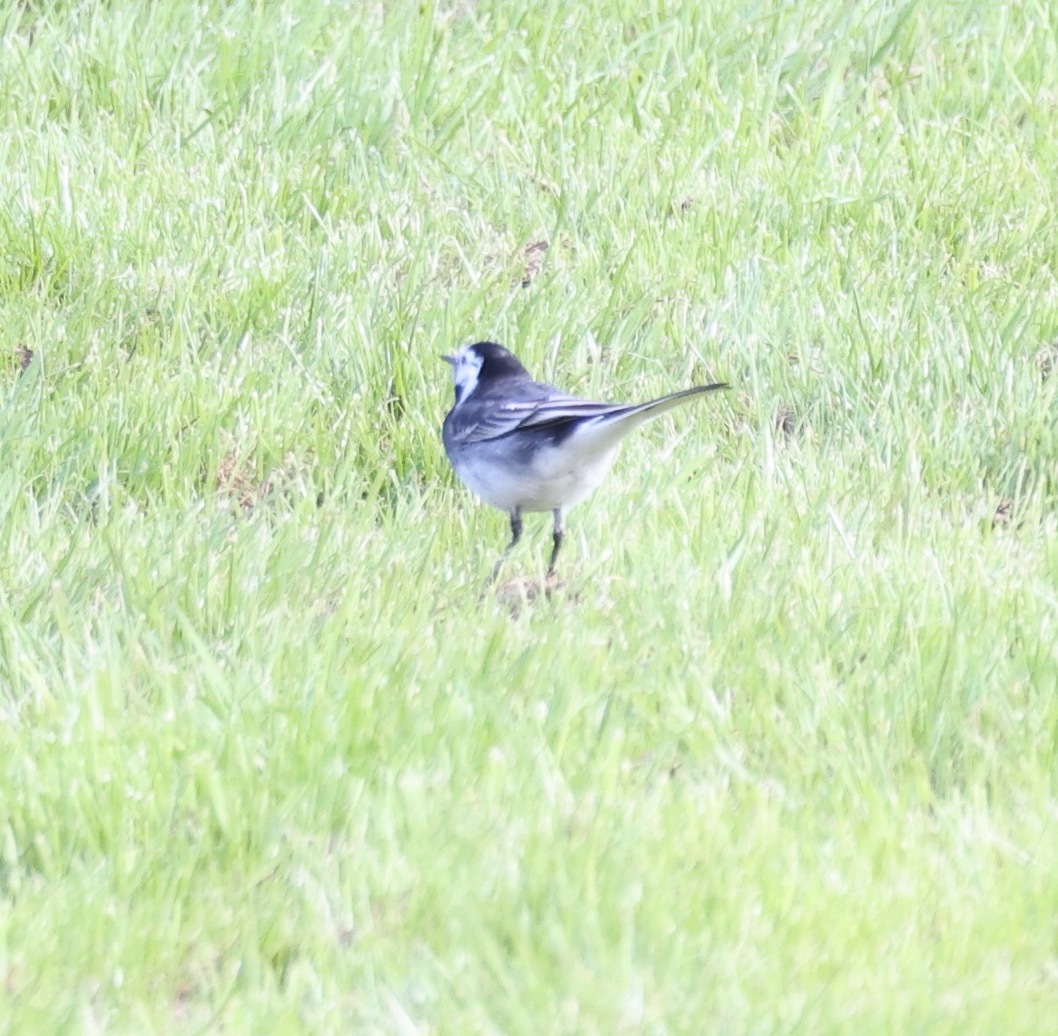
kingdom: Animalia
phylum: Chordata
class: Aves
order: Passeriformes
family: Motacillidae
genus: Motacilla
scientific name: Motacilla alba
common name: White wagtail
